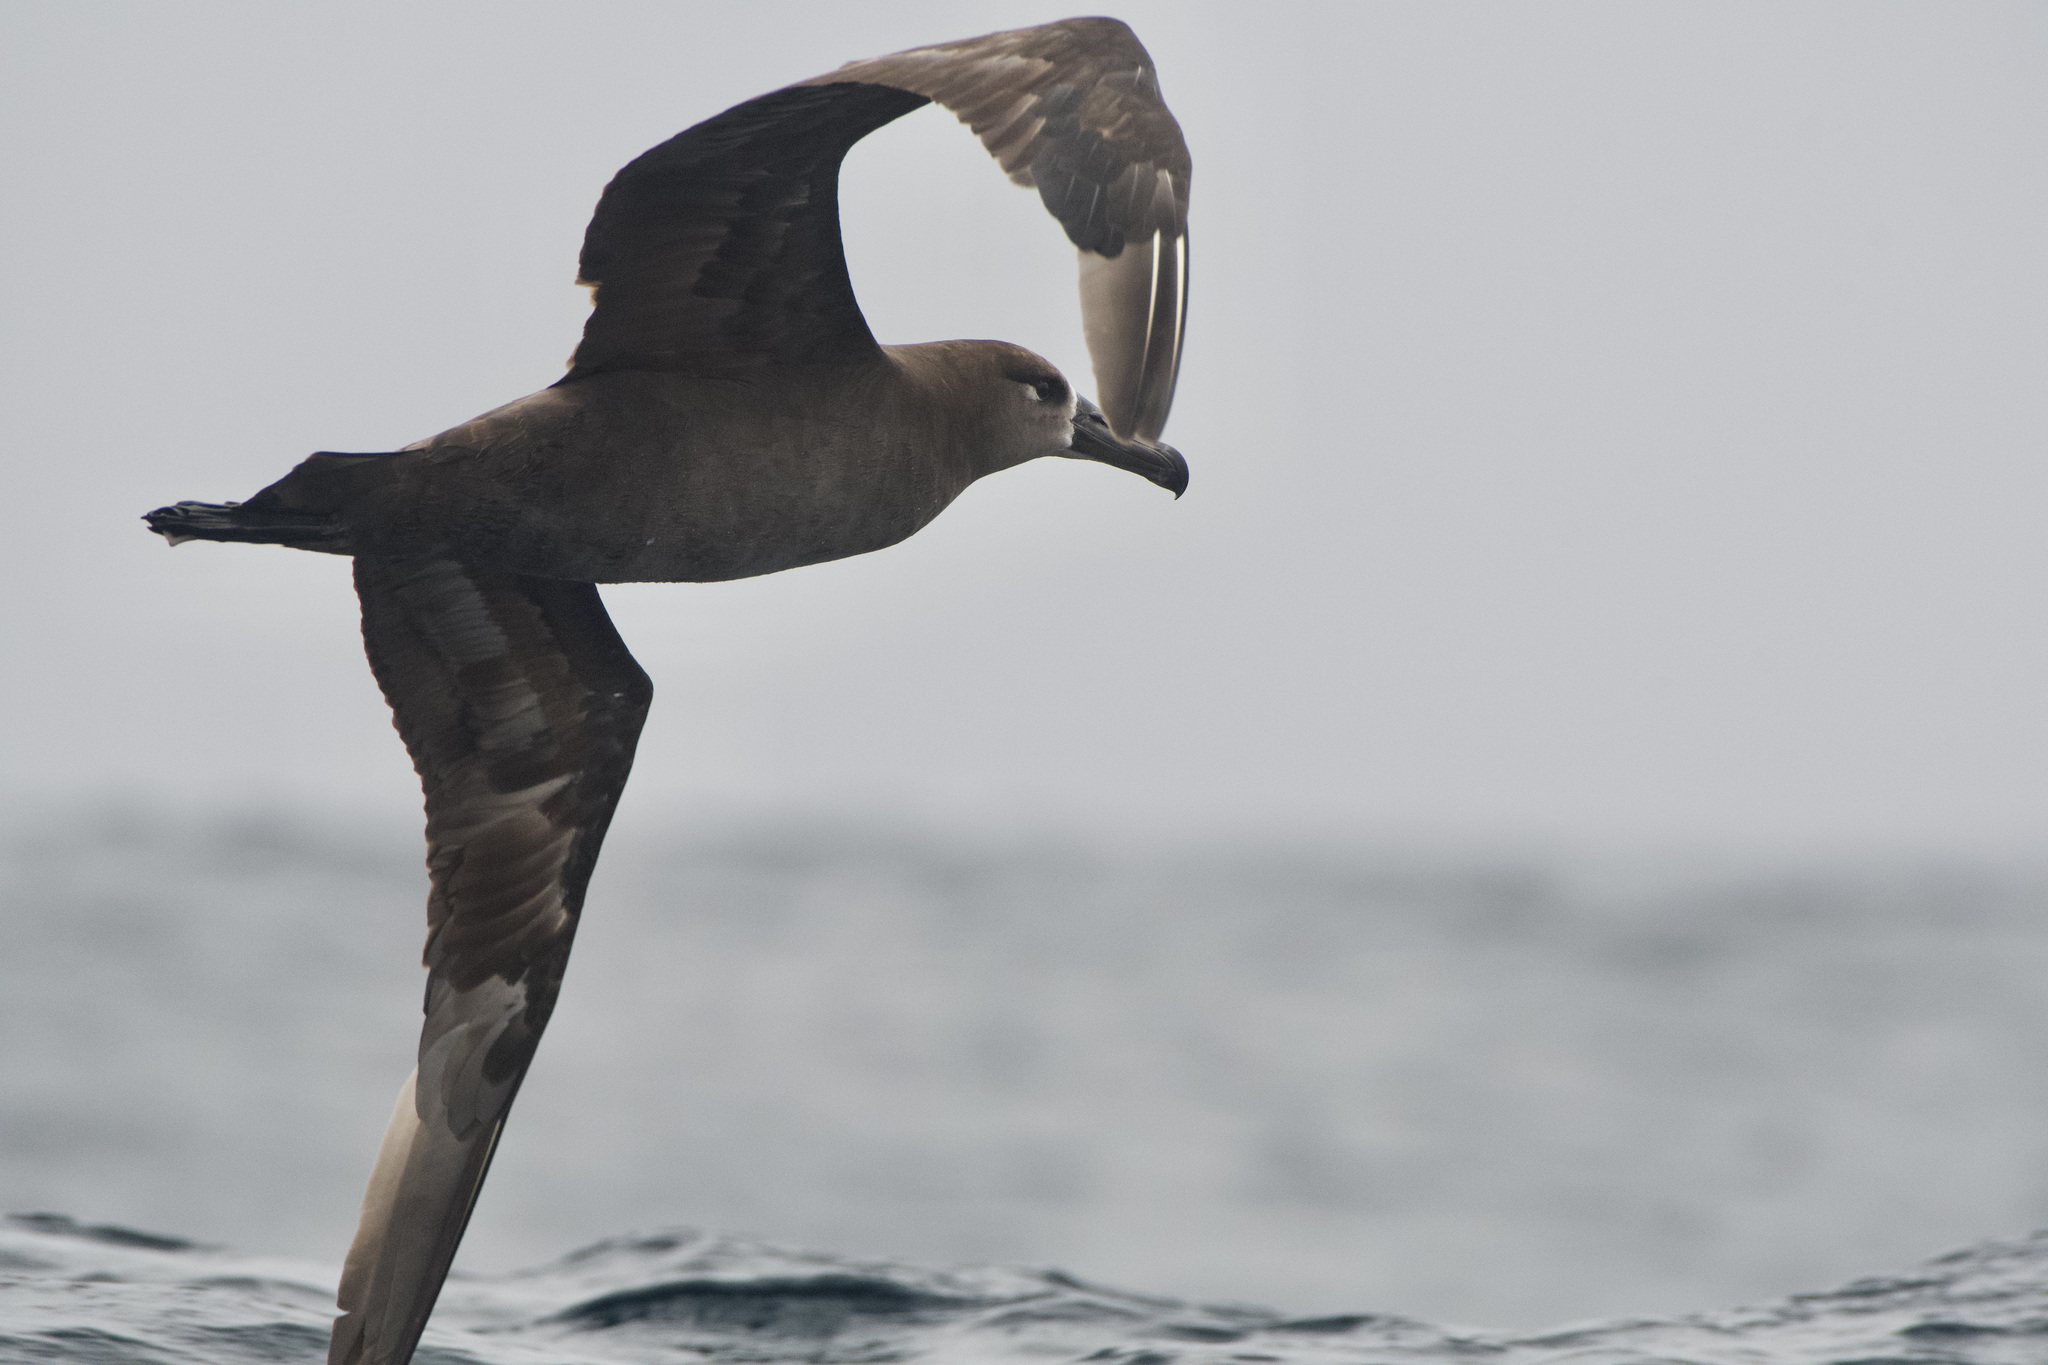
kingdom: Animalia
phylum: Chordata
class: Aves
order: Procellariiformes
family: Diomedeidae
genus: Phoebastria
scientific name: Phoebastria nigripes
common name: Black-footed albatross
